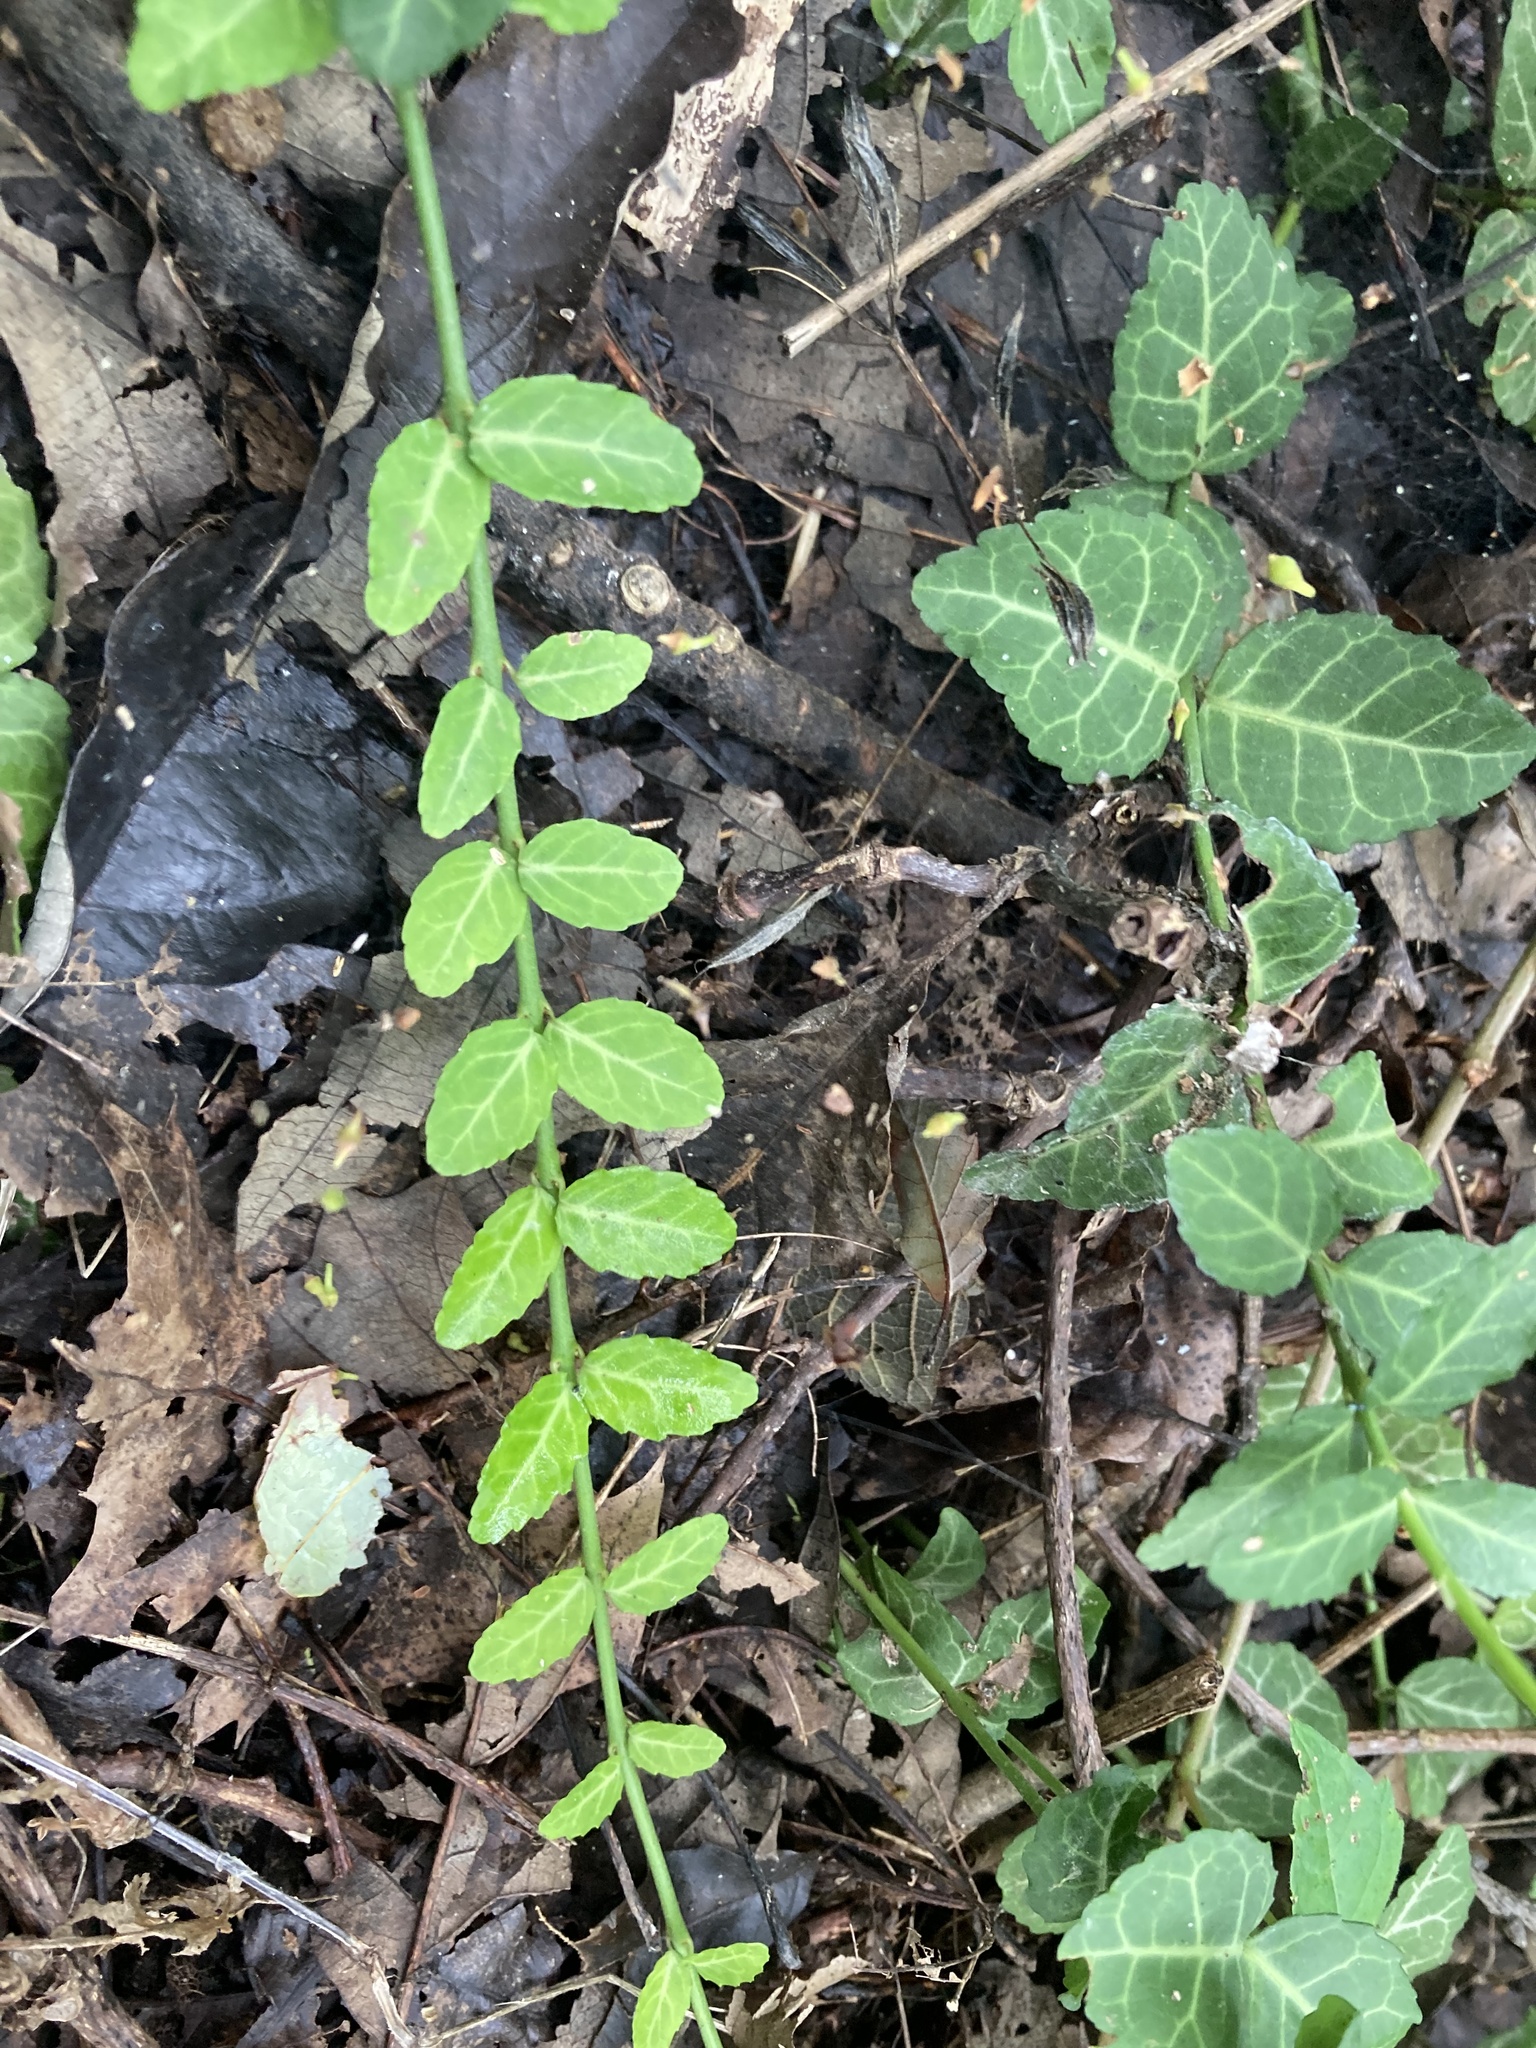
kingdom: Plantae
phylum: Tracheophyta
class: Magnoliopsida
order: Celastrales
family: Celastraceae
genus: Euonymus
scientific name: Euonymus fortunei
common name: Climbing euonymus
